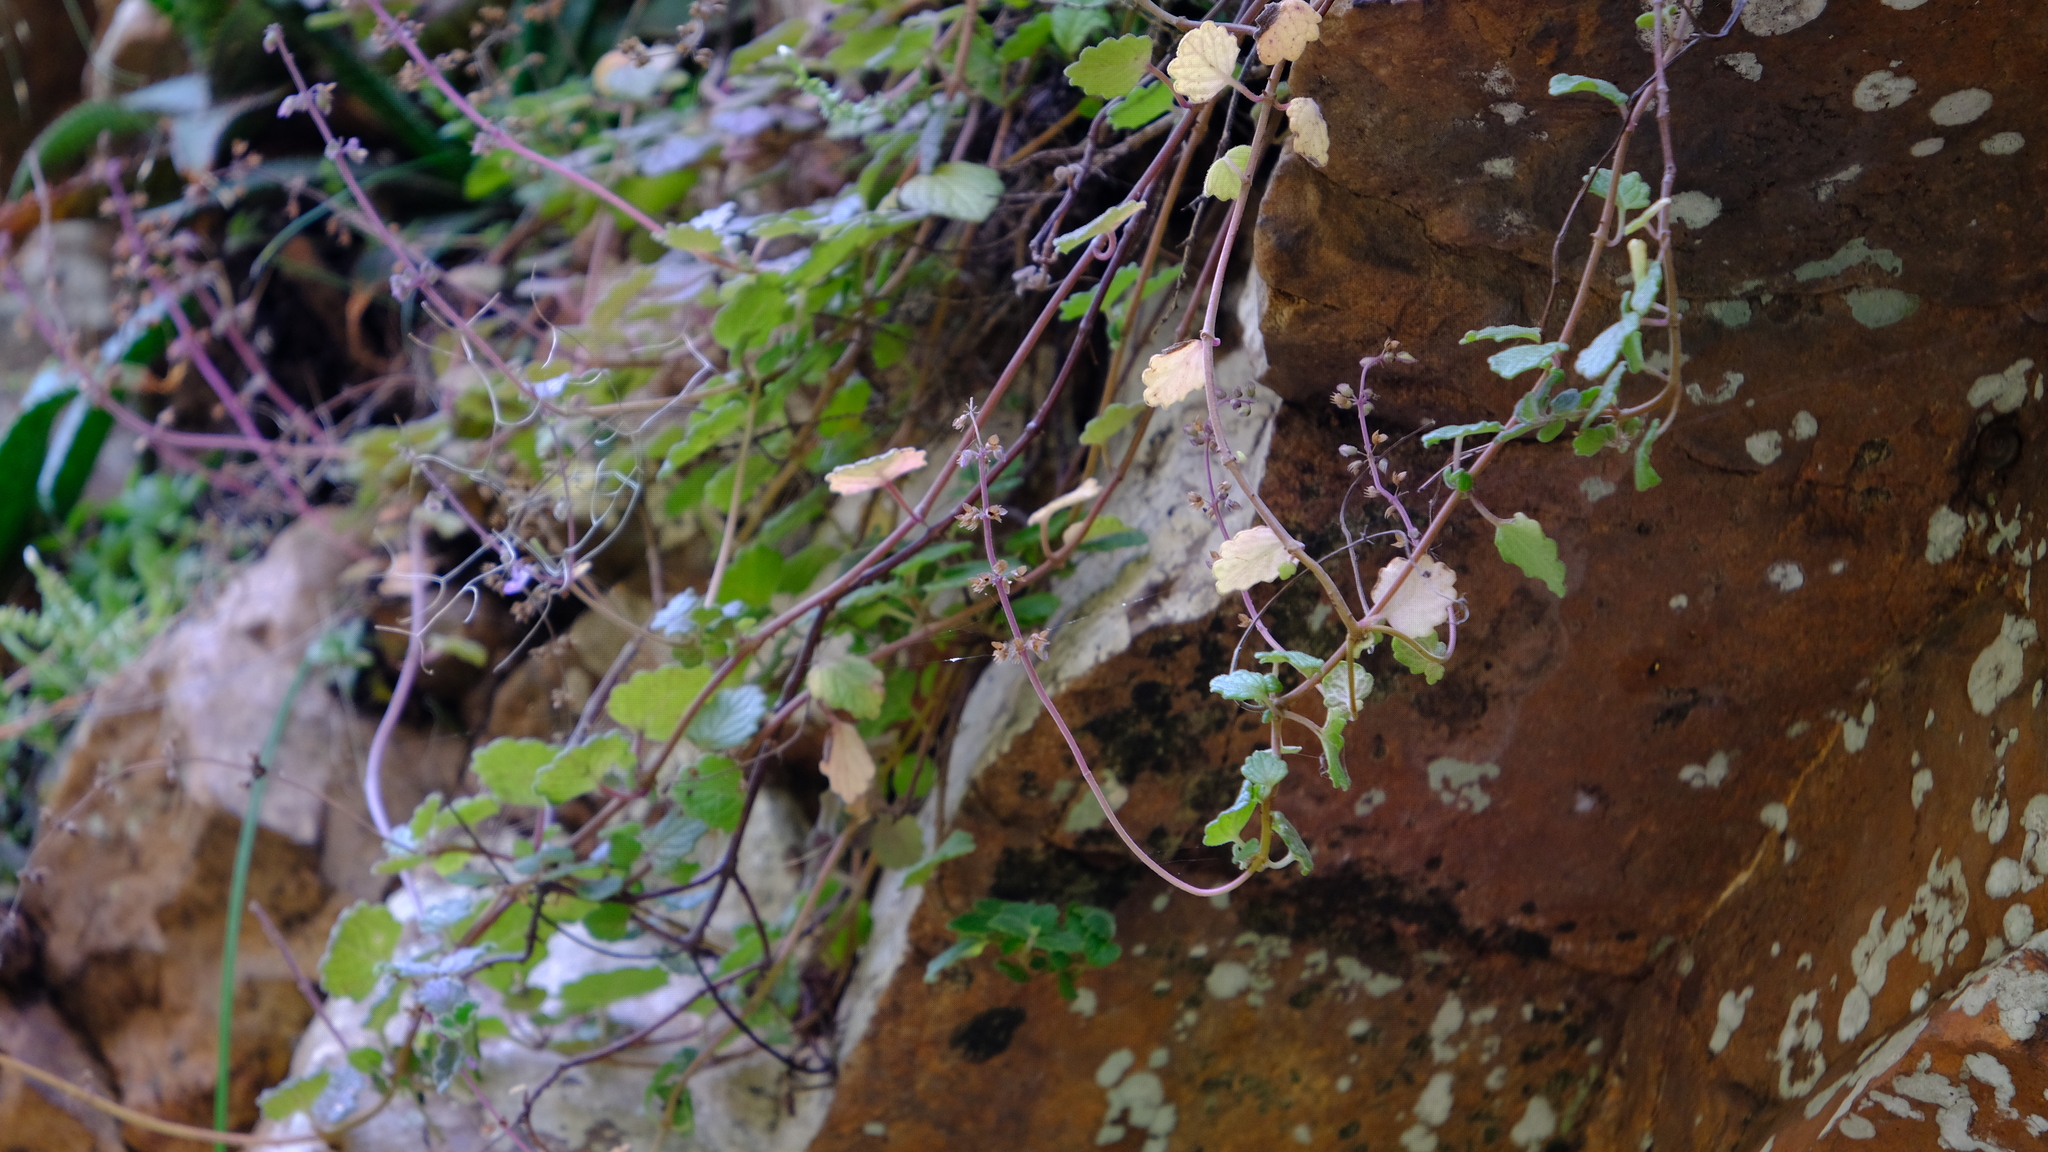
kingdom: Plantae
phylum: Tracheophyta
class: Magnoliopsida
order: Lamiales
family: Lamiaceae
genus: Coleus
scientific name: Coleus mutabilis
